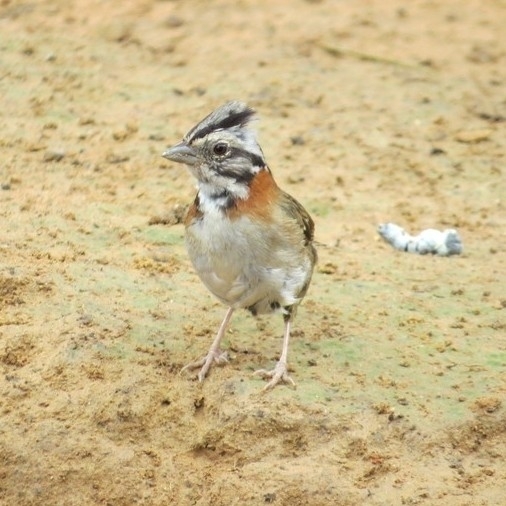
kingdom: Animalia
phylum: Chordata
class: Aves
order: Passeriformes
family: Passerellidae
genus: Zonotrichia
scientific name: Zonotrichia capensis
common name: Rufous-collared sparrow
